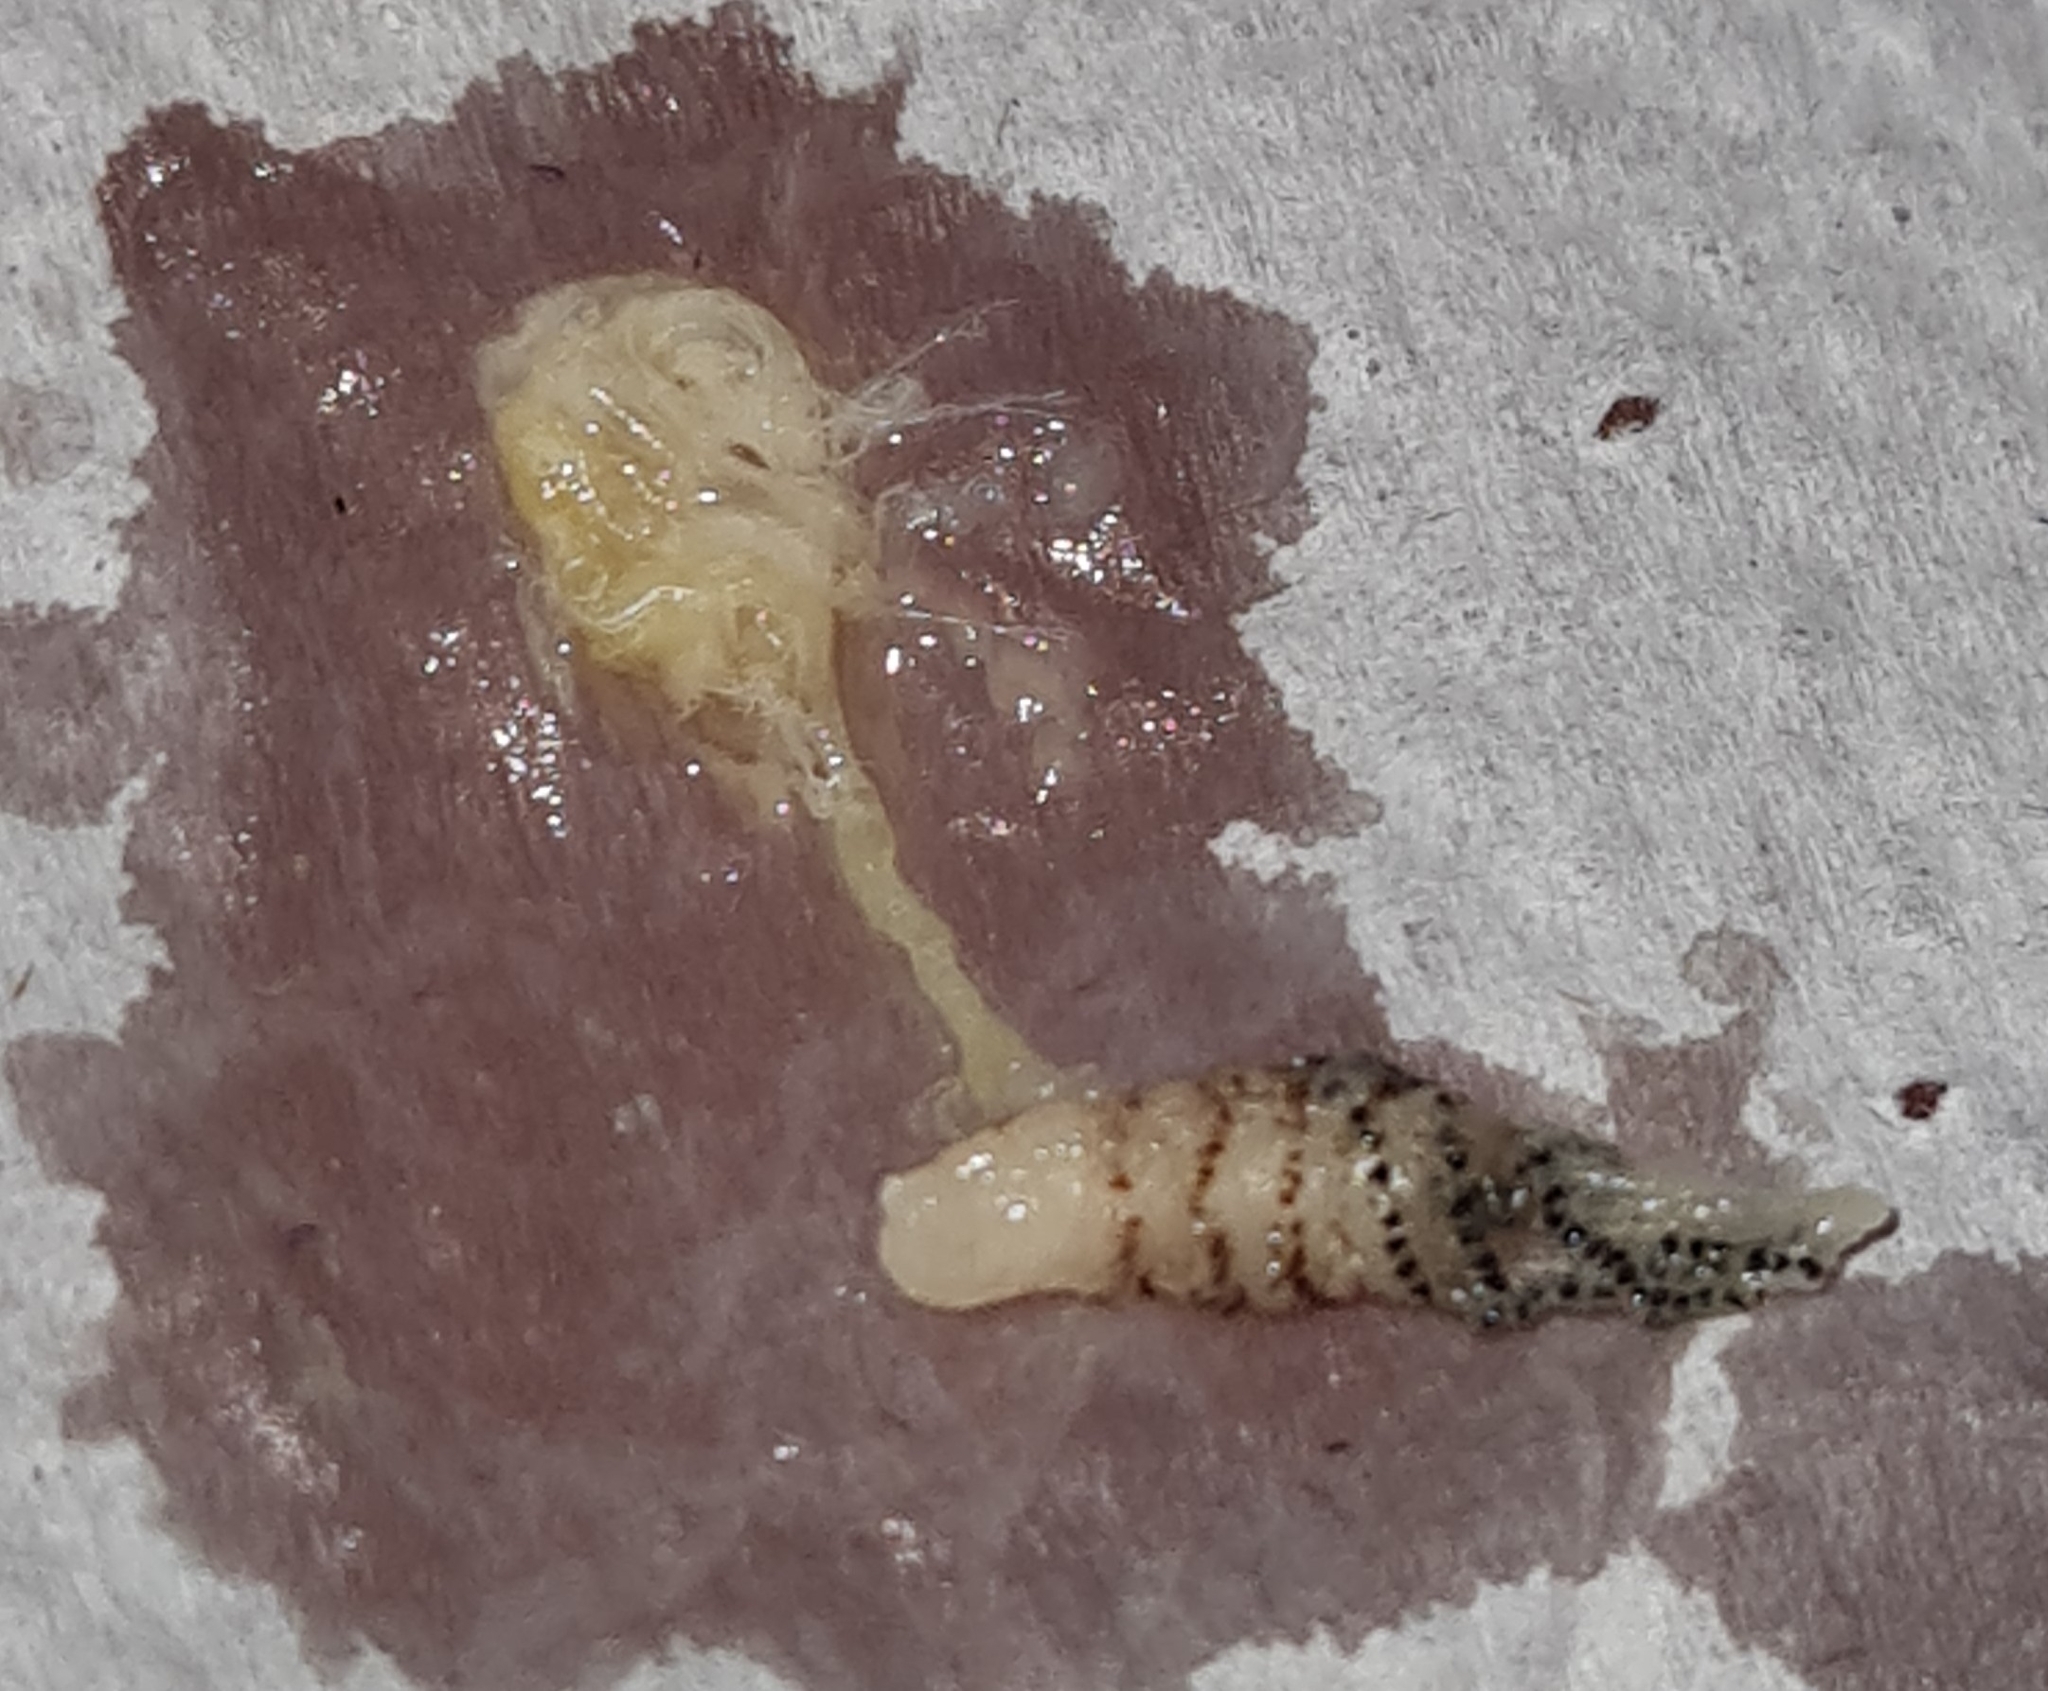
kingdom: Animalia
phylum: Arthropoda
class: Insecta
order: Diptera
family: Oestridae
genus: Dermatobia
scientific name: Dermatobia hominis
